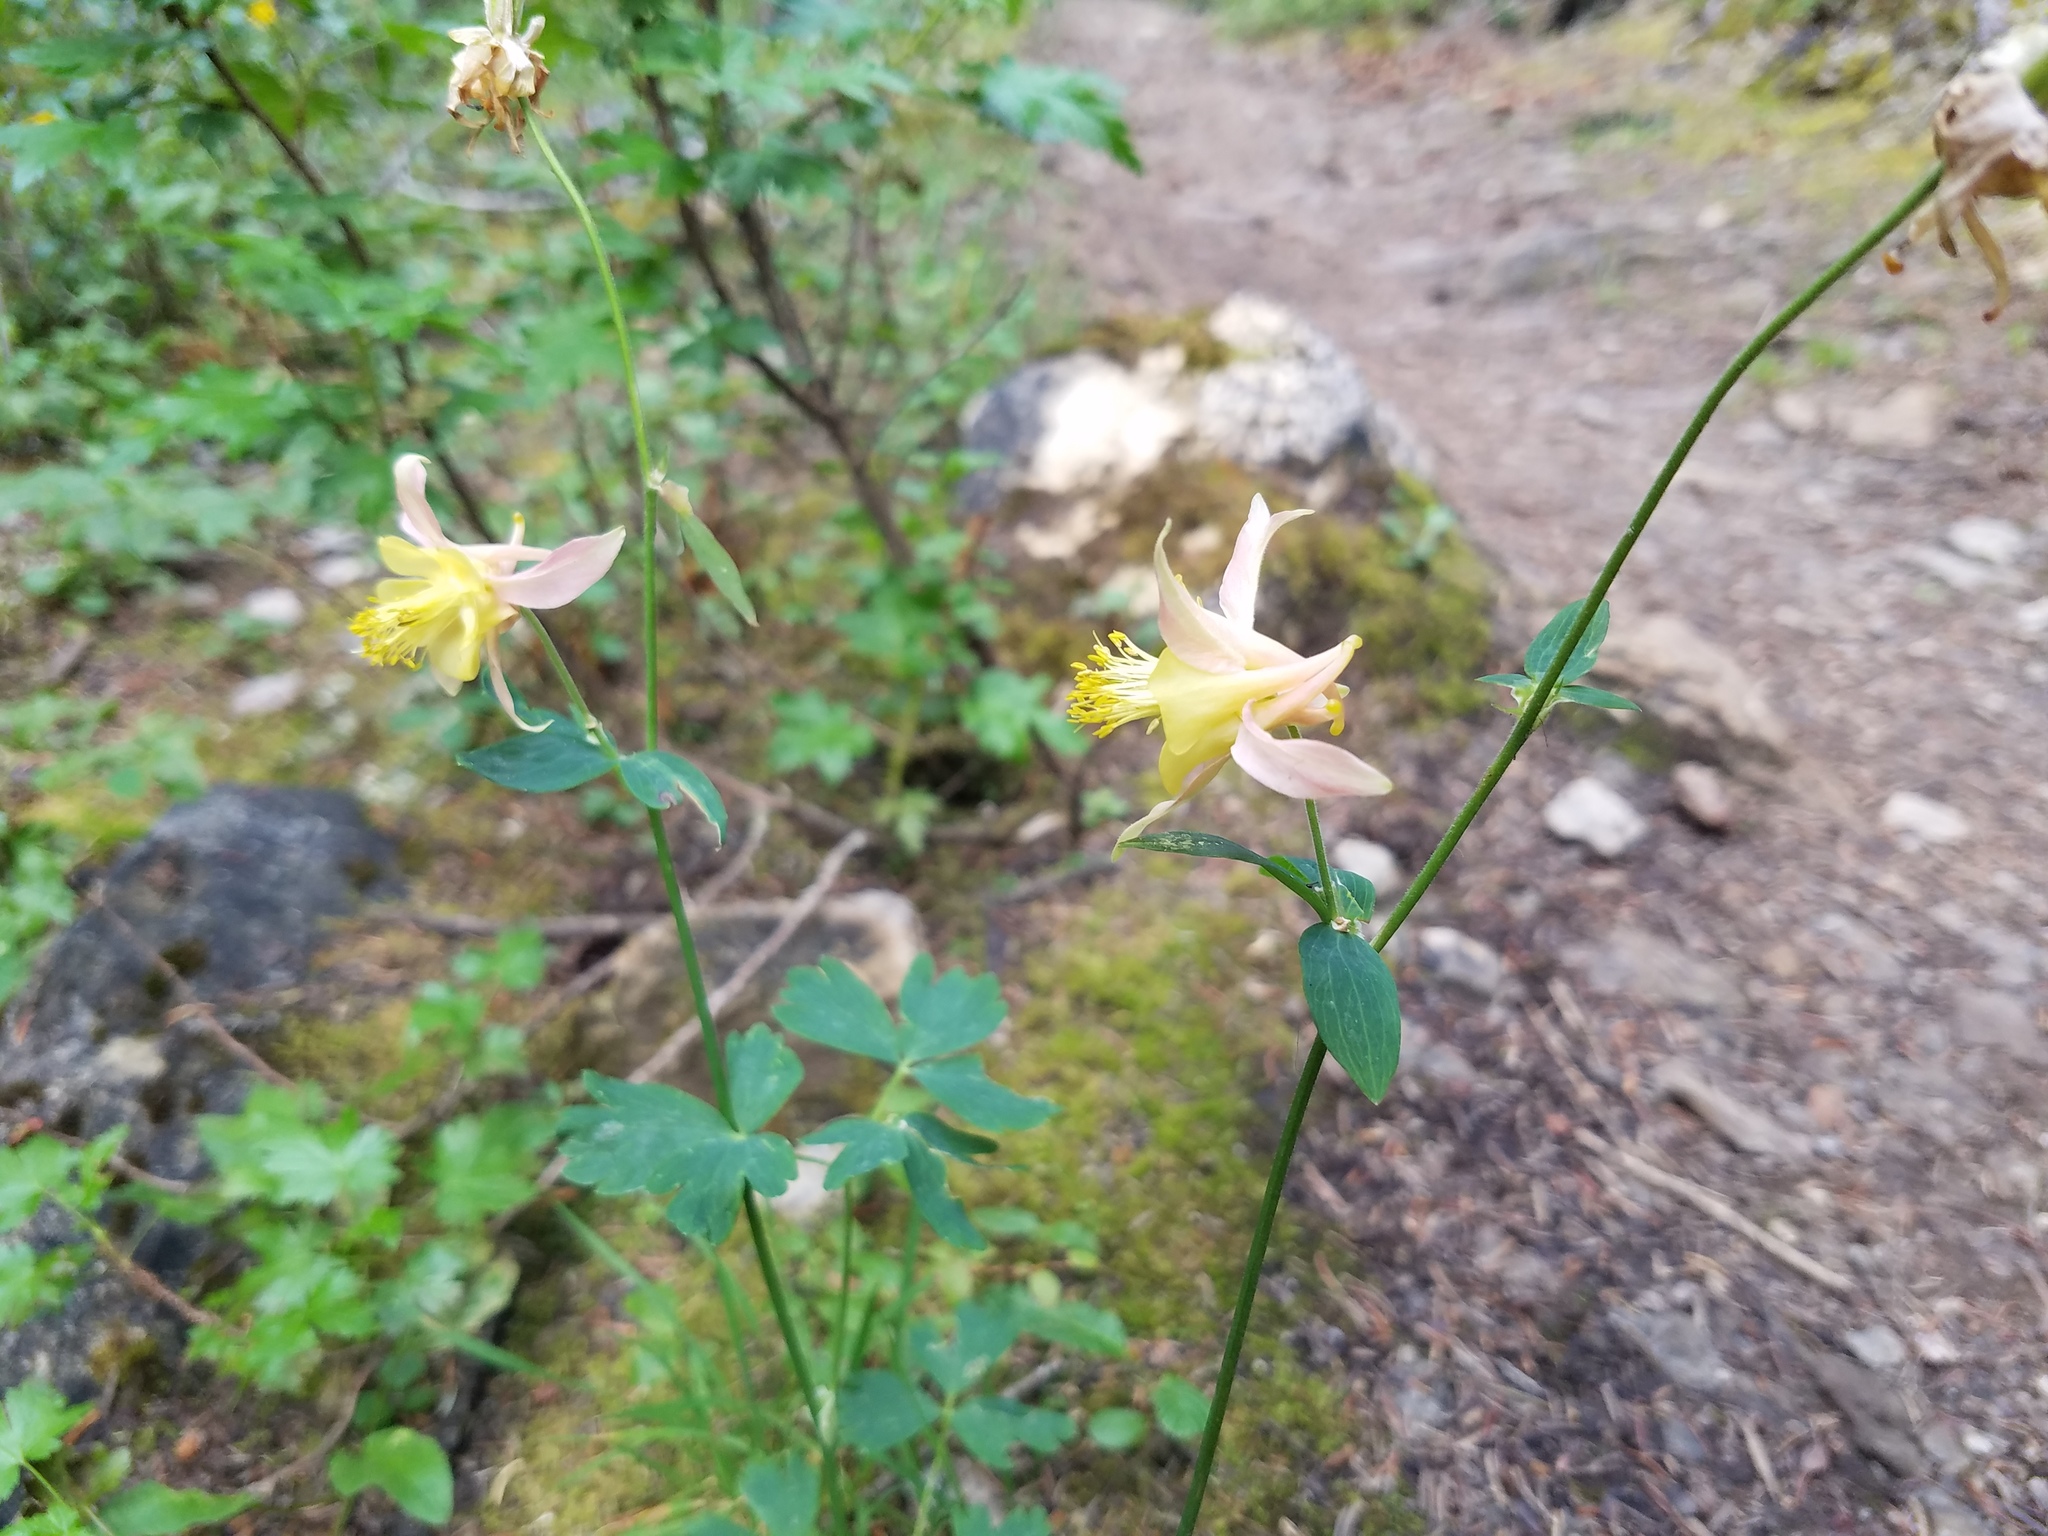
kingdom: Plantae
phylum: Tracheophyta
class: Magnoliopsida
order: Ranunculales
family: Ranunculaceae
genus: Aquilegia
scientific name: Aquilegia flavescens
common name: Yellow columbine
